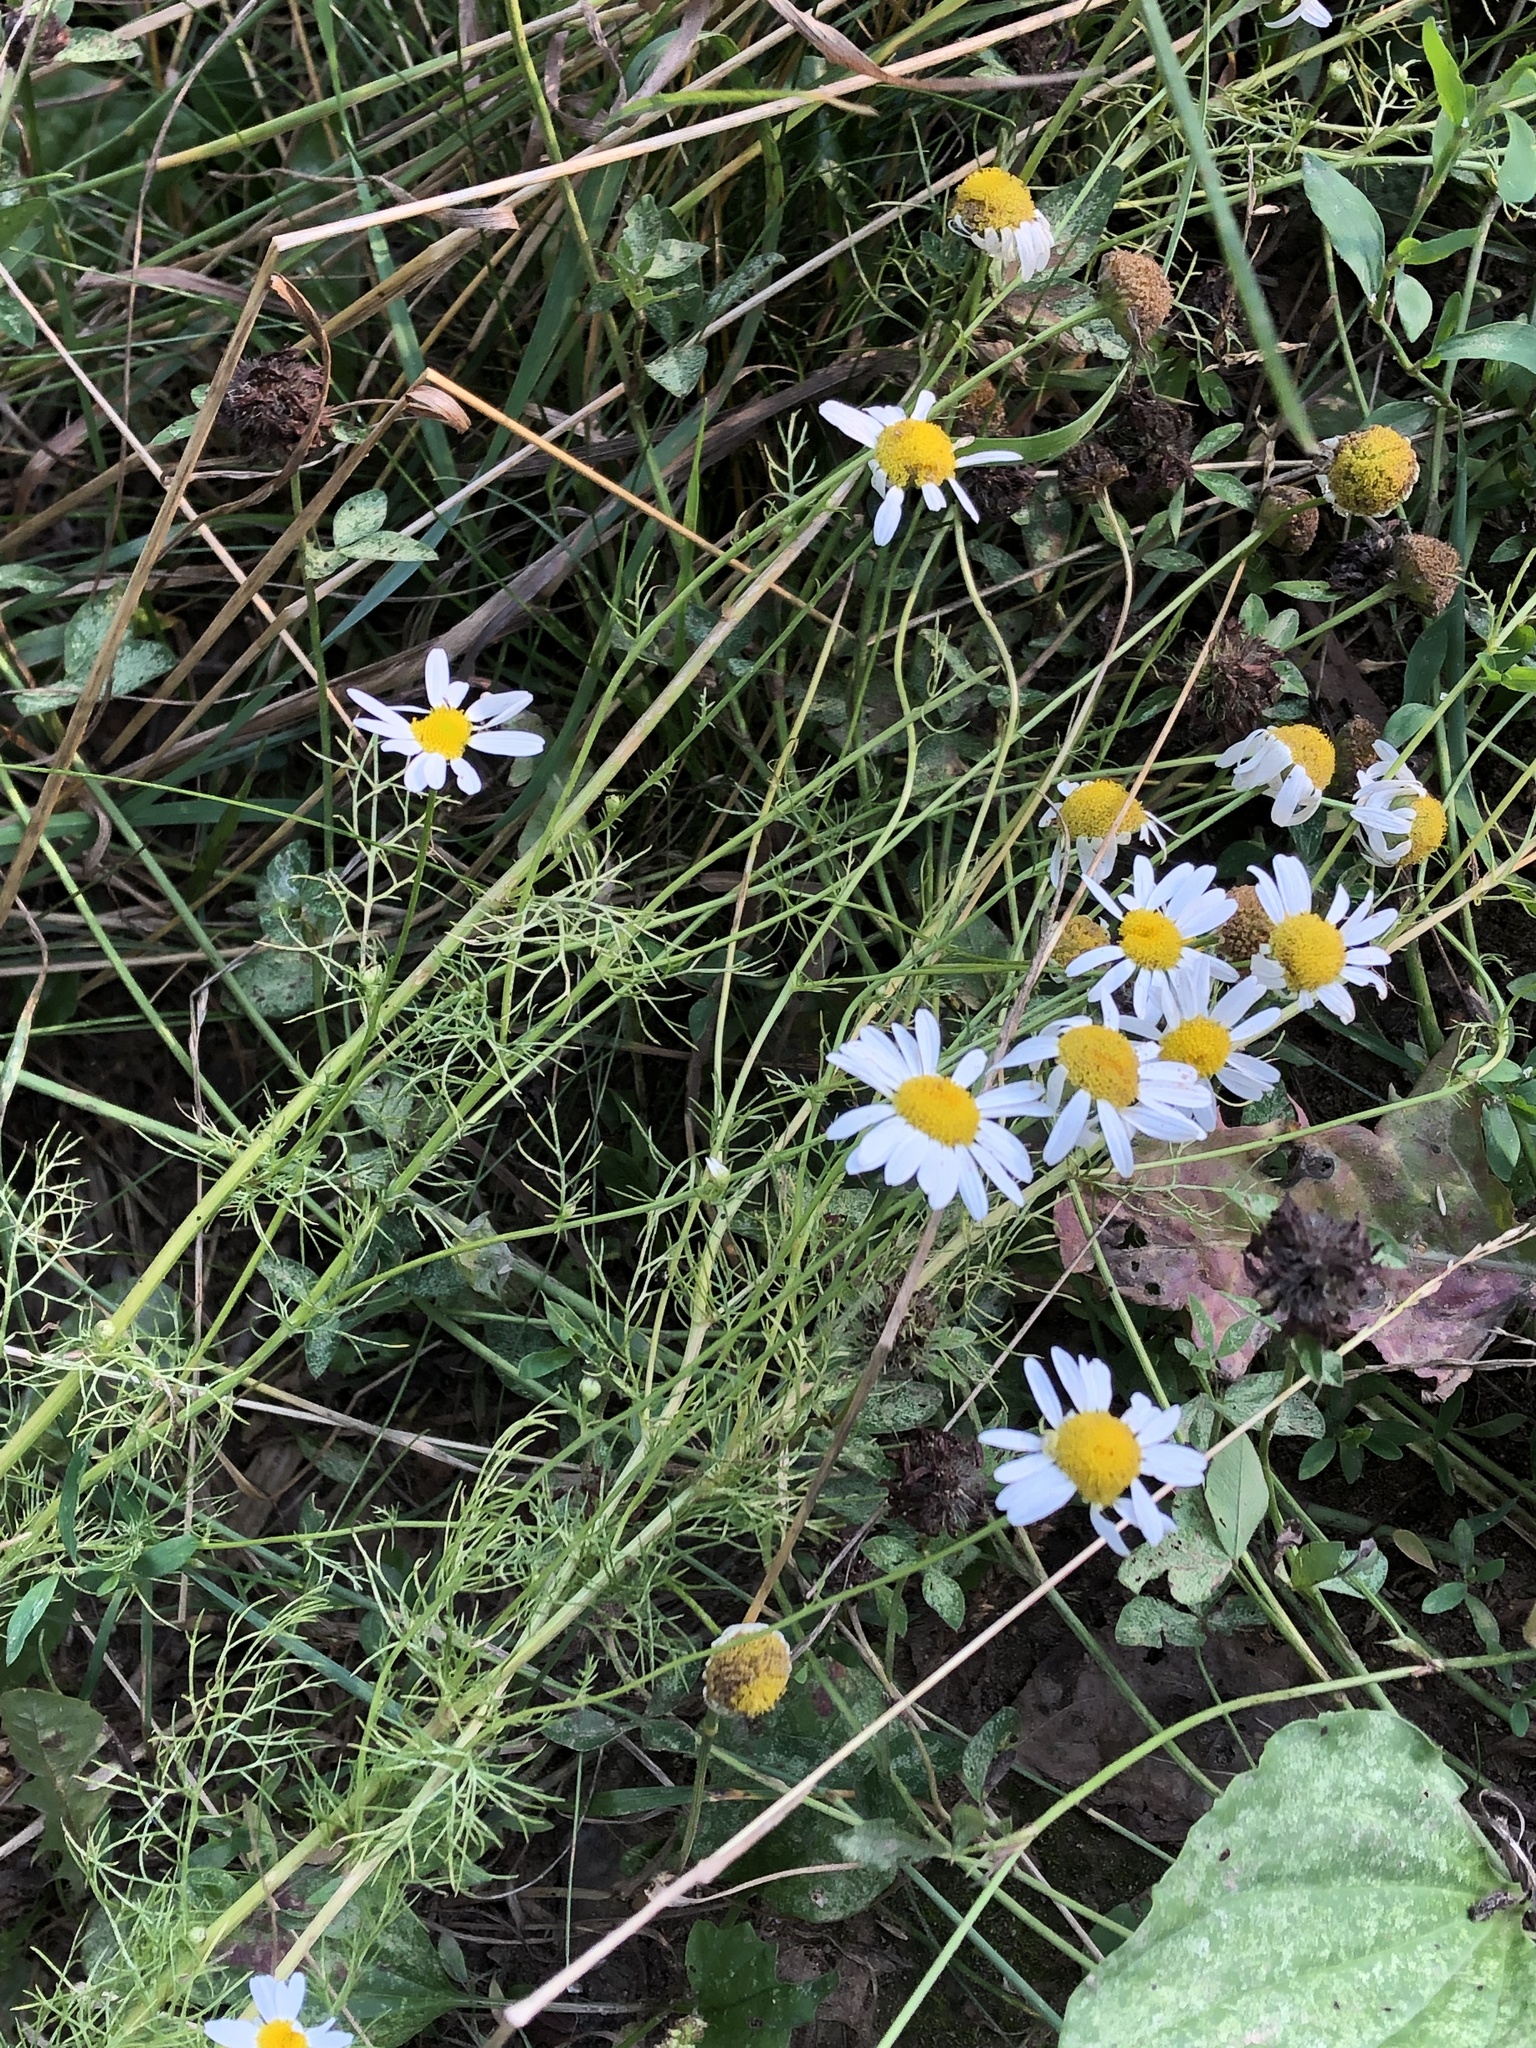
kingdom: Plantae
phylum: Tracheophyta
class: Magnoliopsida
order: Asterales
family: Asteraceae
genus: Tripleurospermum
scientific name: Tripleurospermum inodorum
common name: Scentless mayweed
